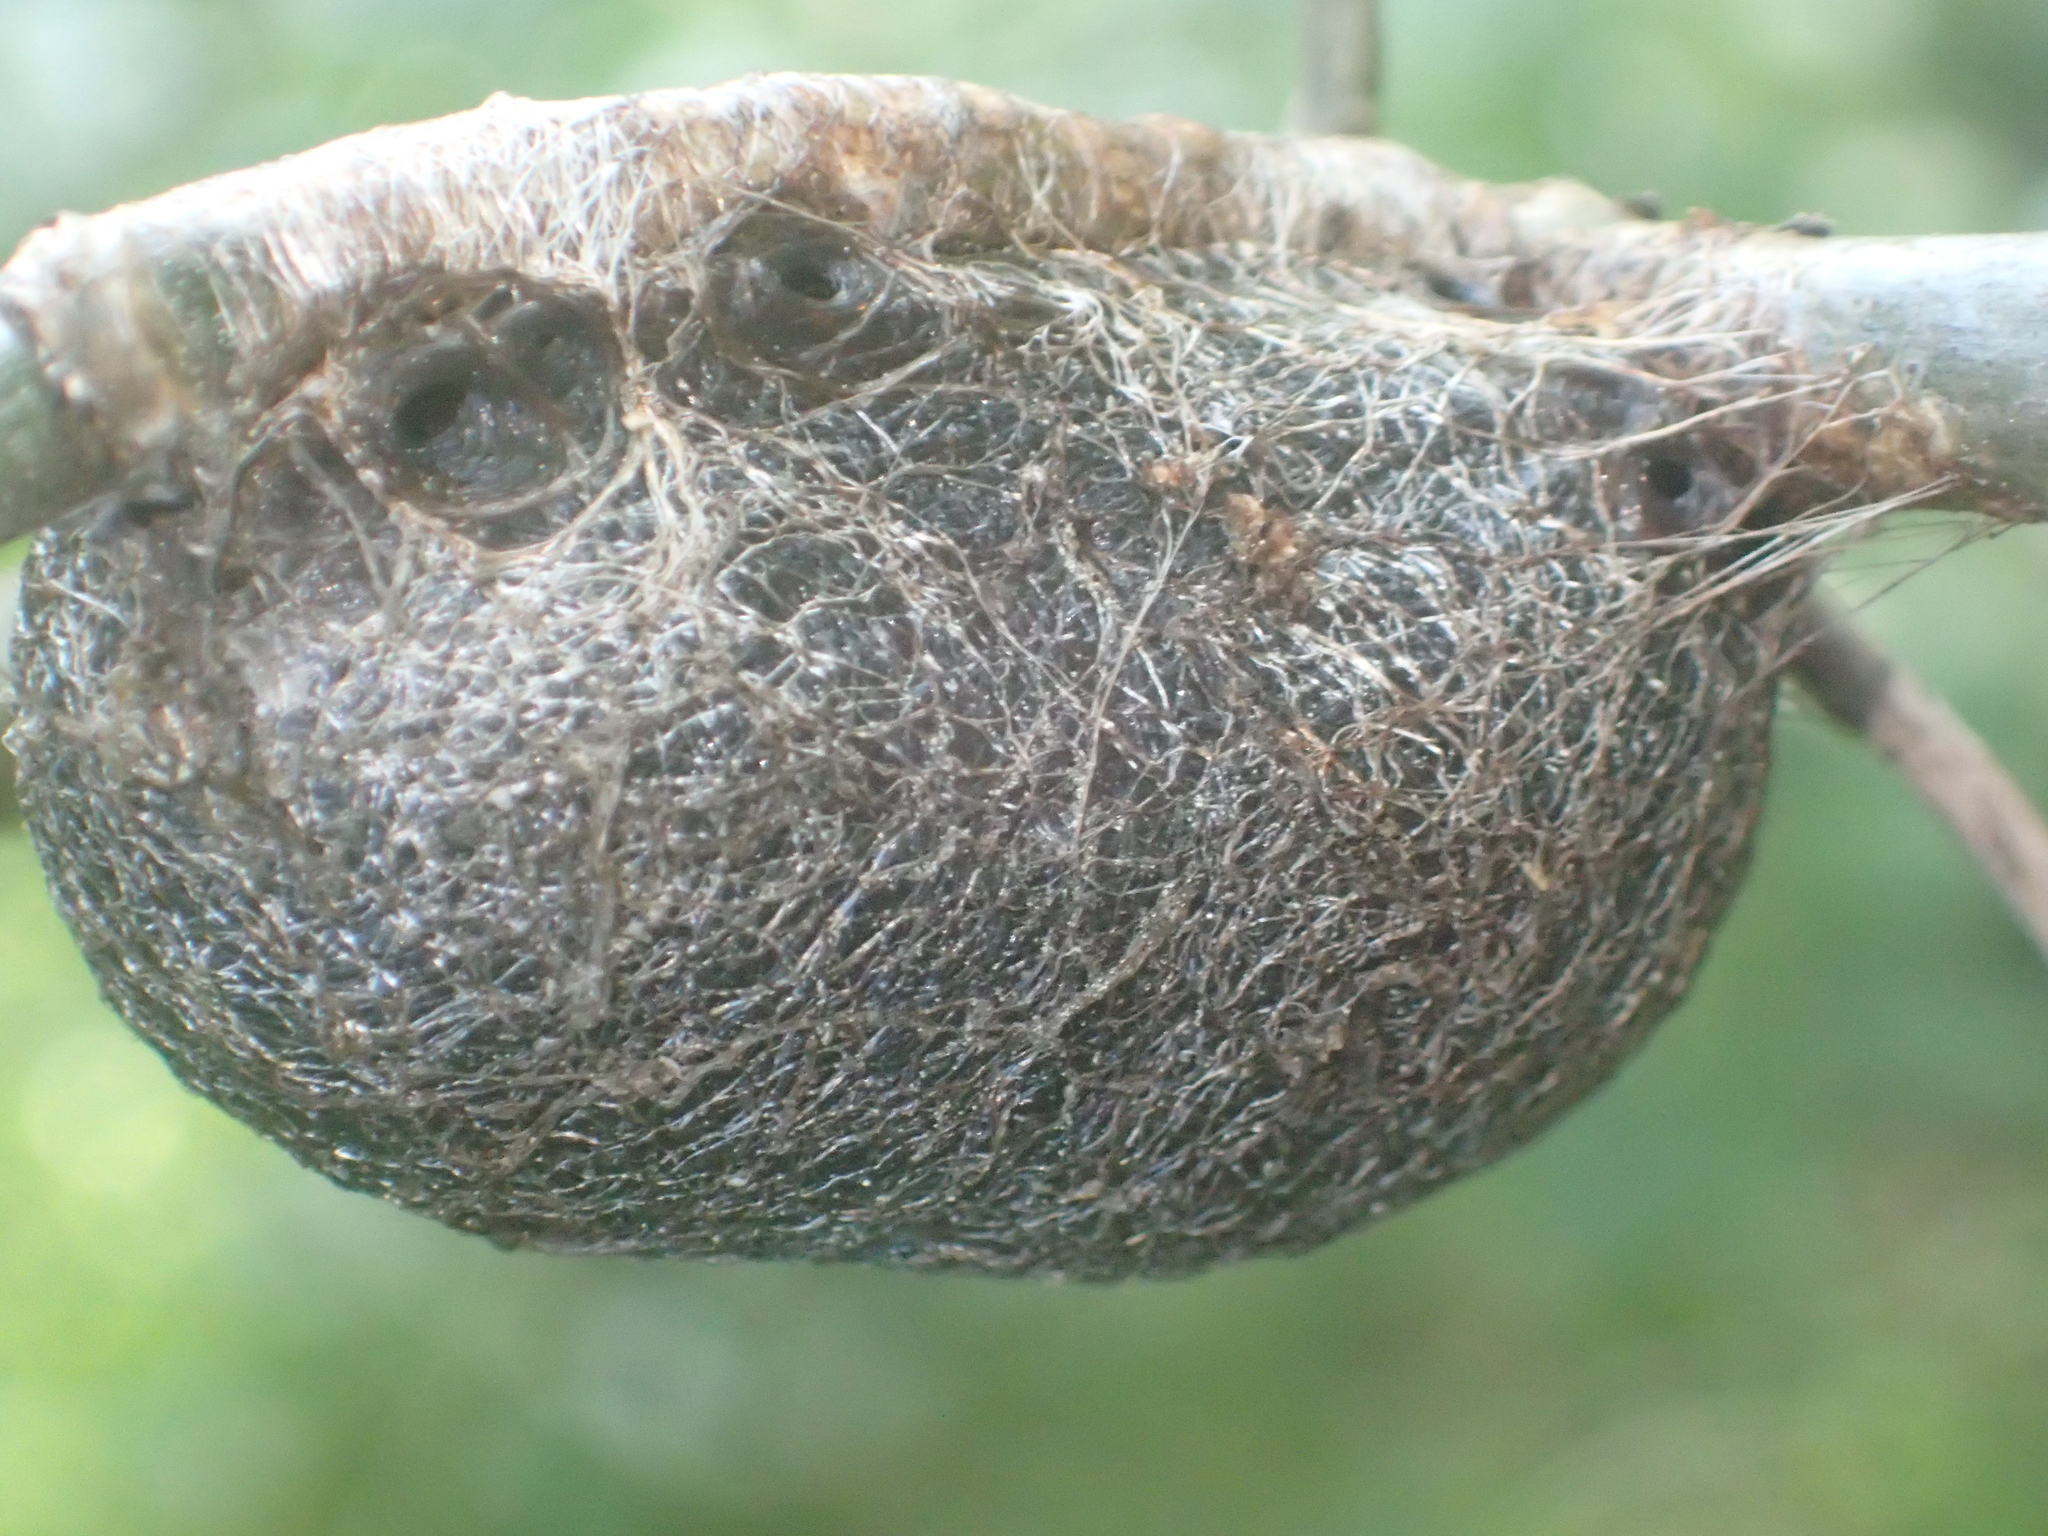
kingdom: Animalia
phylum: Arthropoda
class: Insecta
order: Lepidoptera
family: Saturniidae
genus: Opodiphthera
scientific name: Opodiphthera
